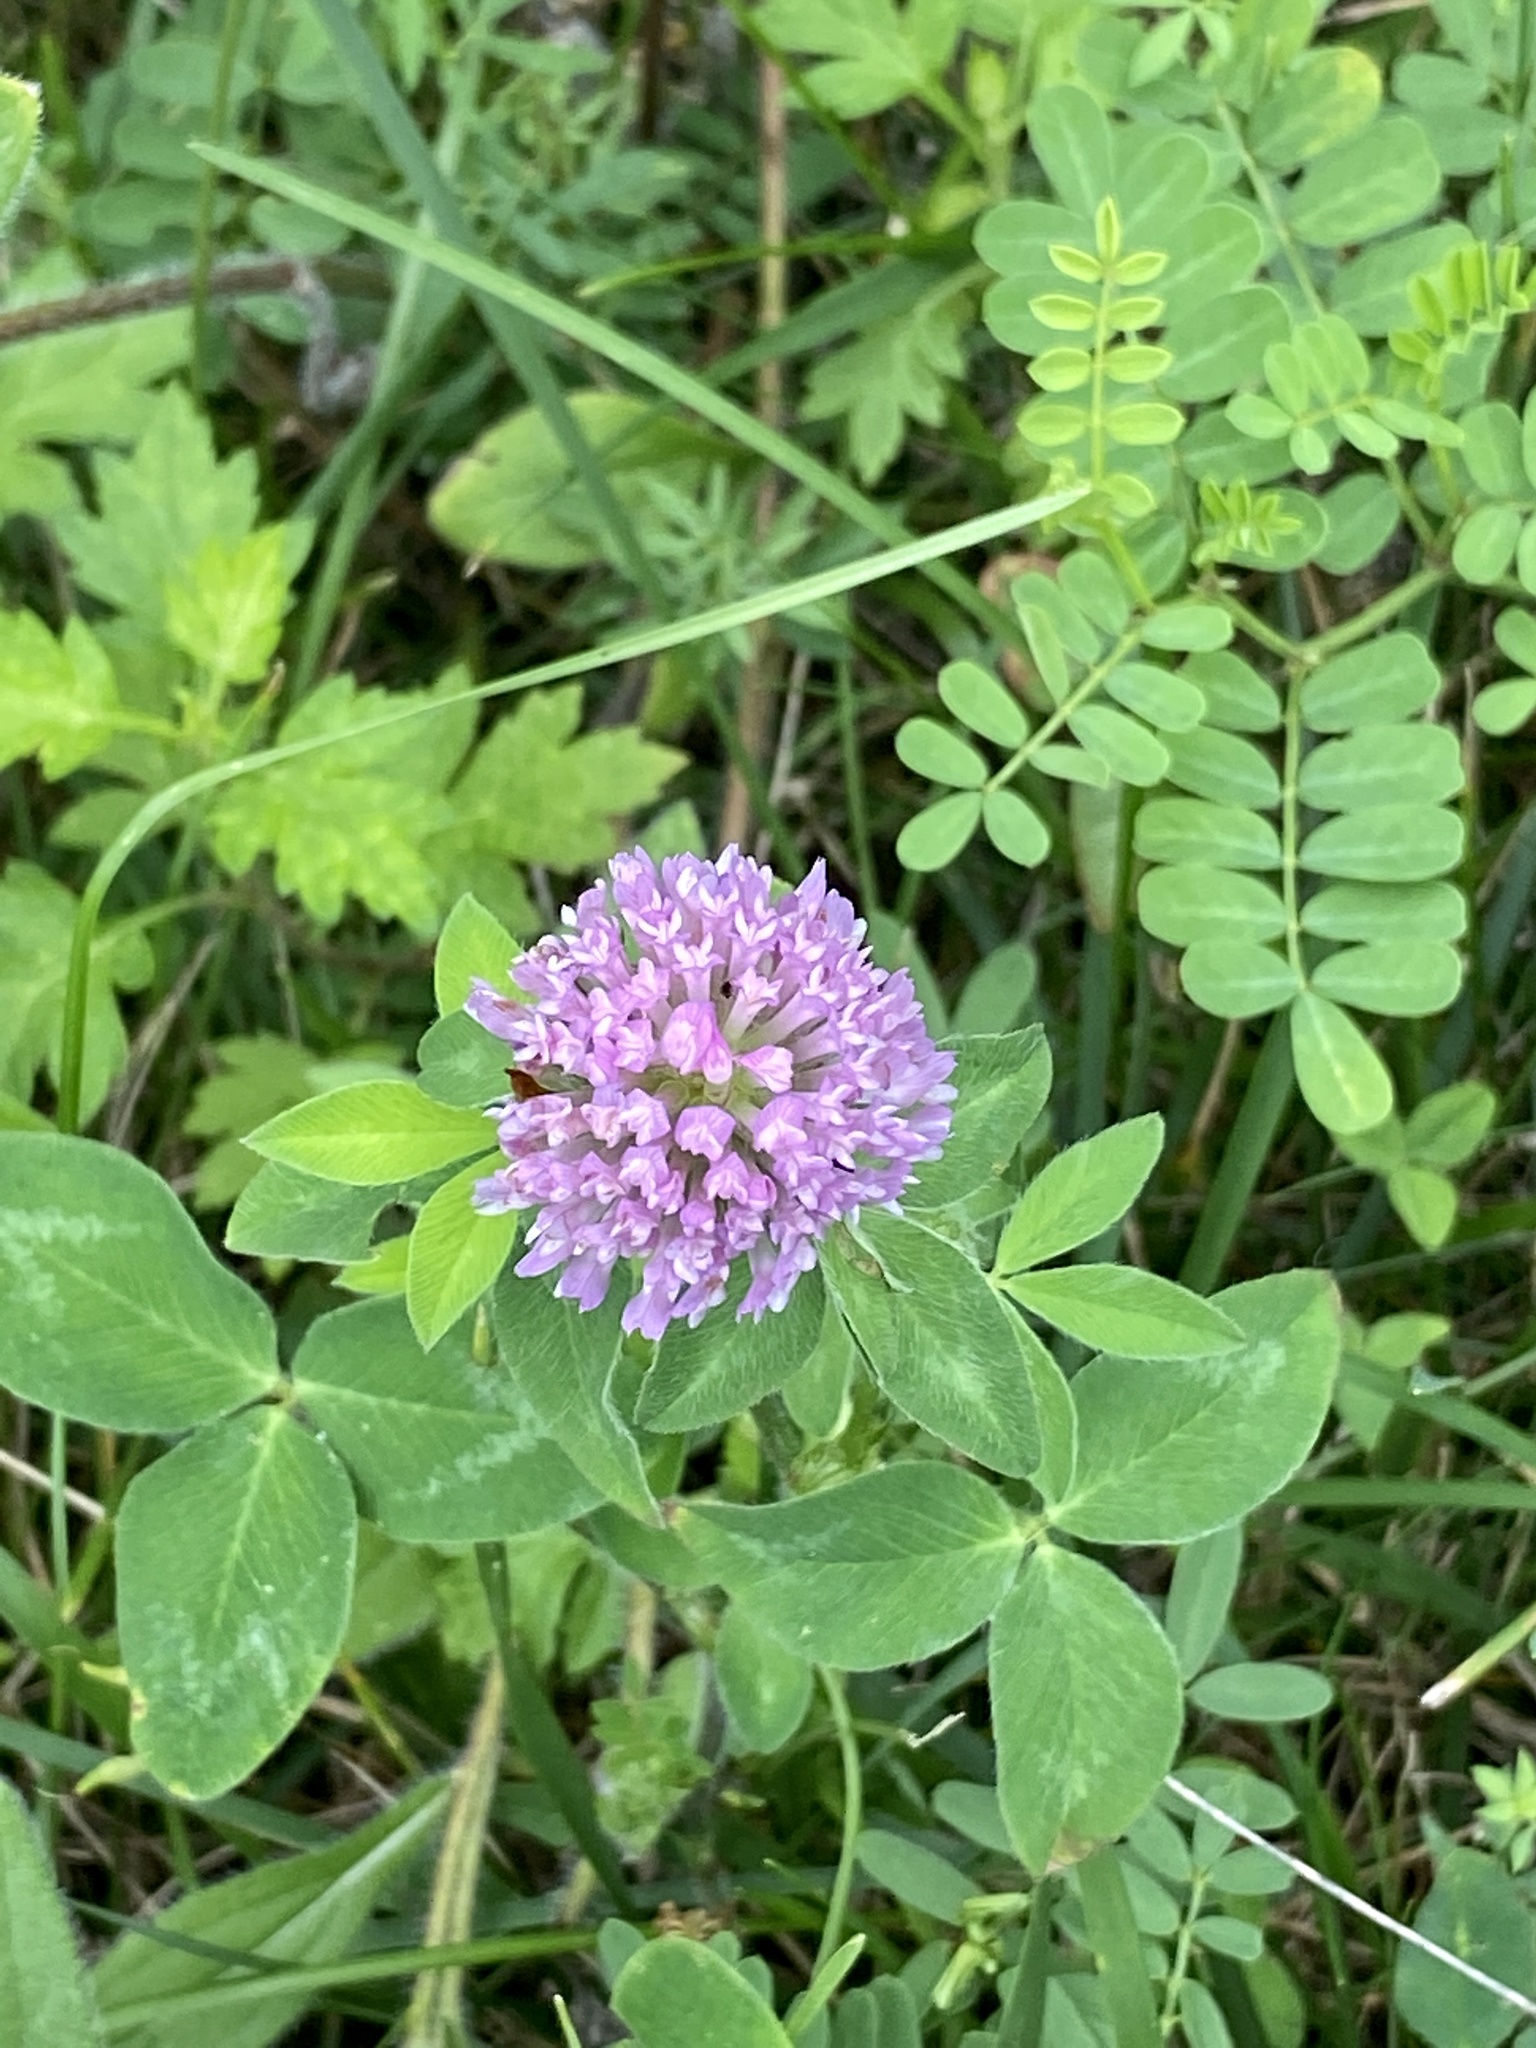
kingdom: Plantae
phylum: Tracheophyta
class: Magnoliopsida
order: Fabales
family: Fabaceae
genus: Trifolium
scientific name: Trifolium pratense
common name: Red clover
